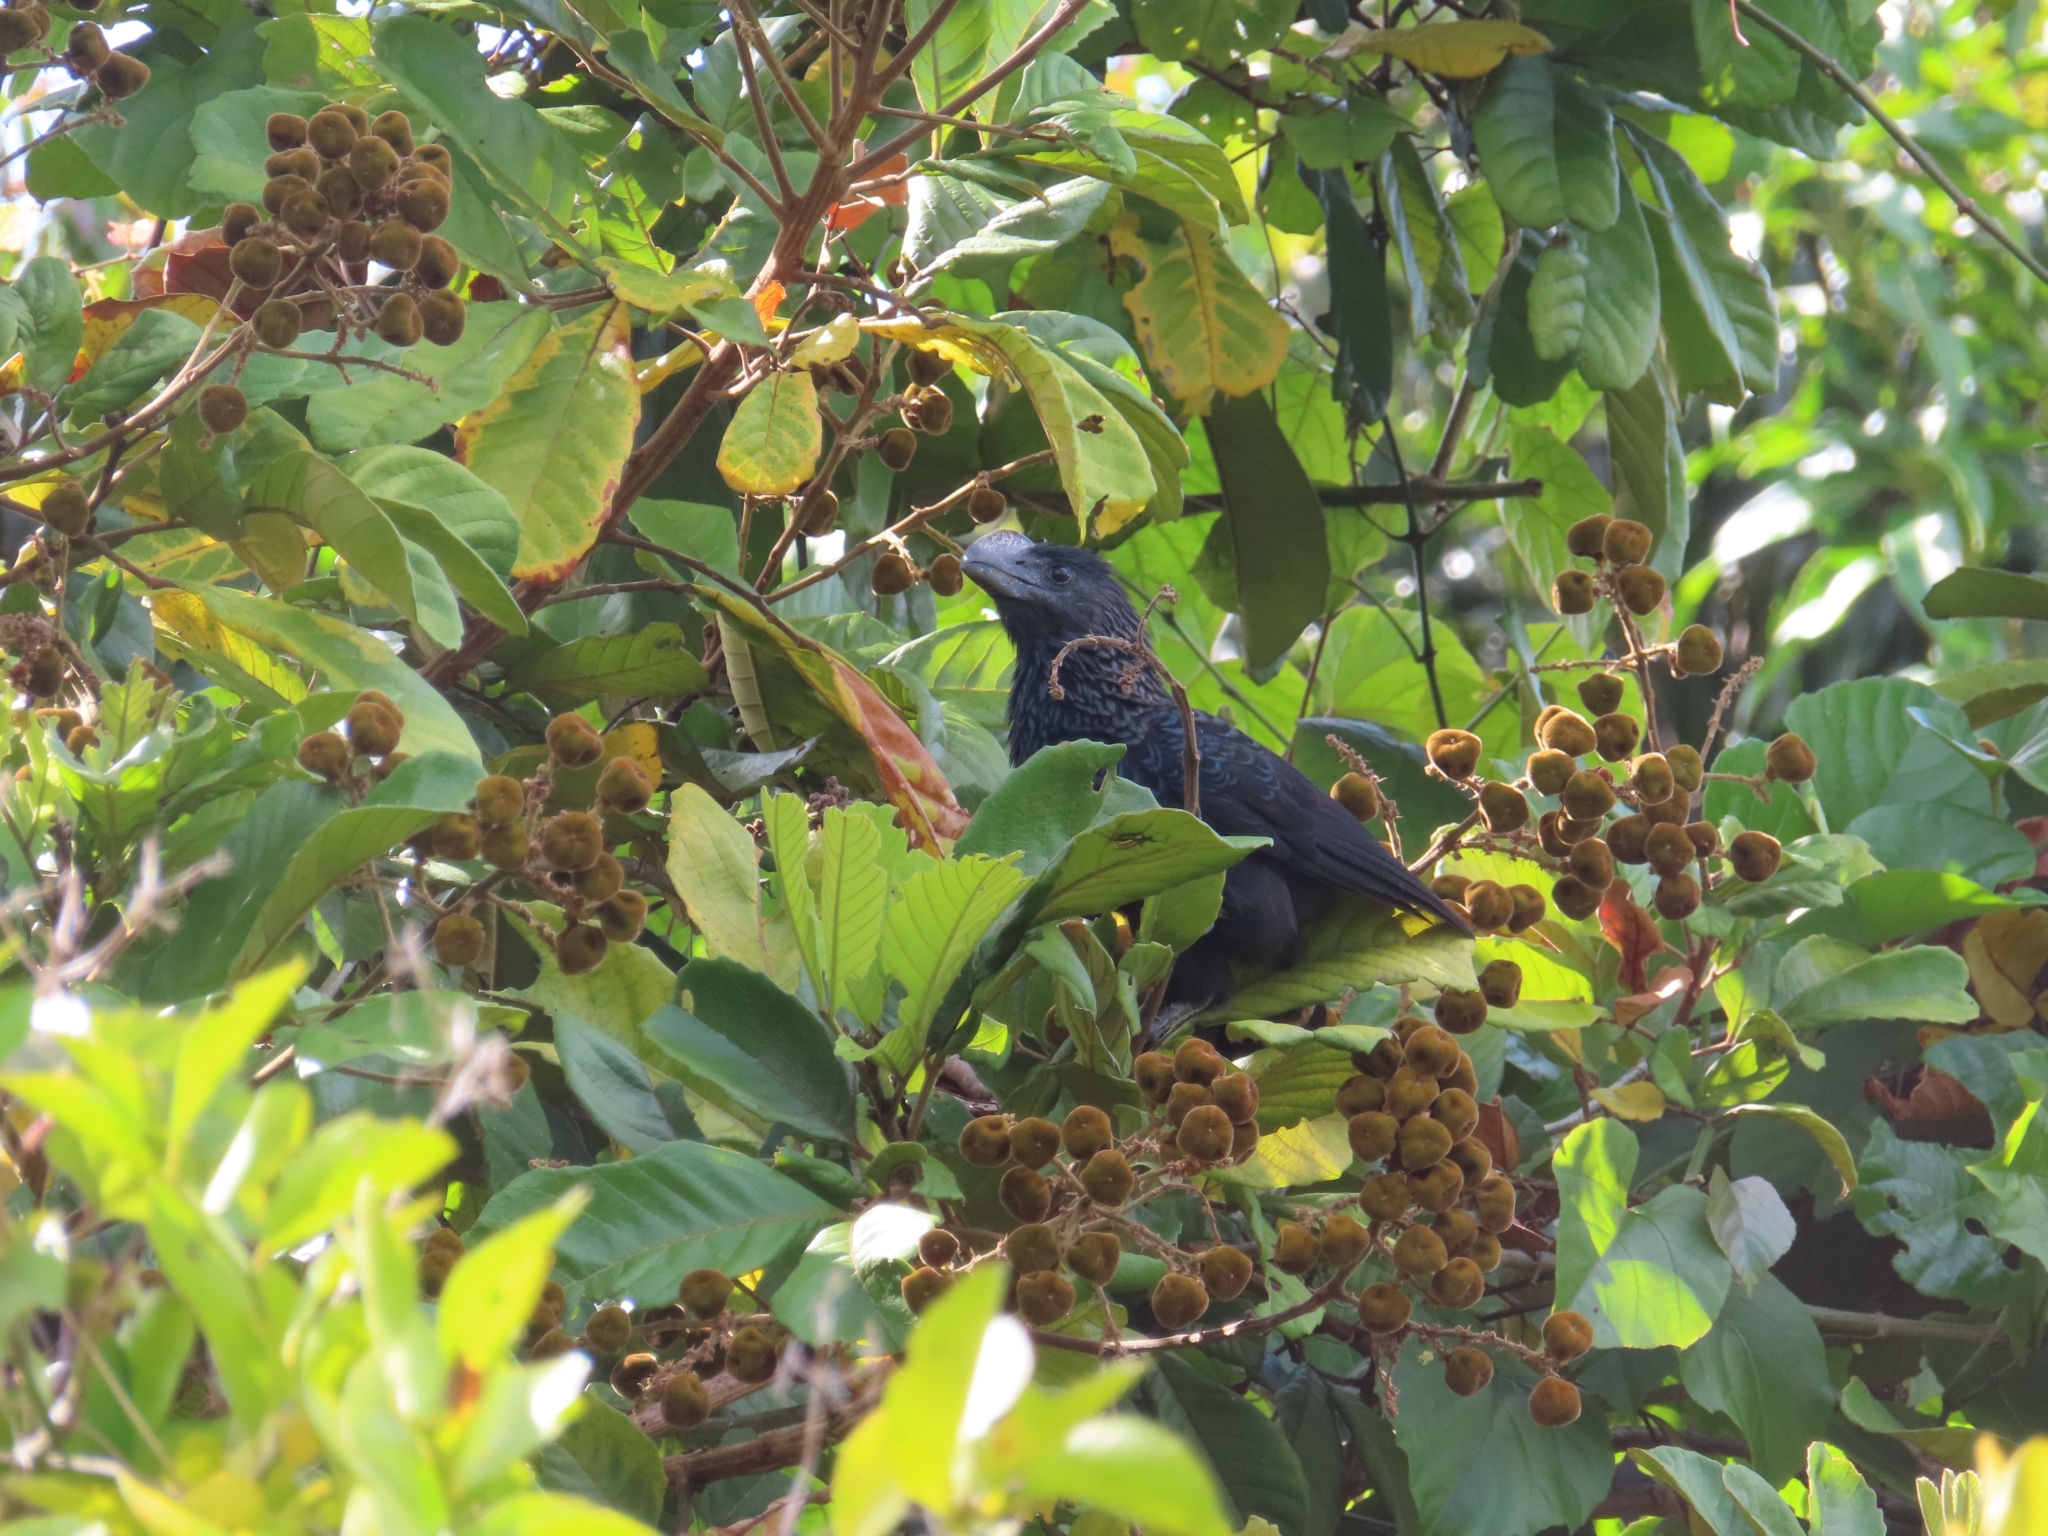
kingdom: Animalia
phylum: Chordata
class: Aves
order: Cuculiformes
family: Cuculidae
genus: Crotophaga
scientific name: Crotophaga ani
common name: Smooth-billed ani
